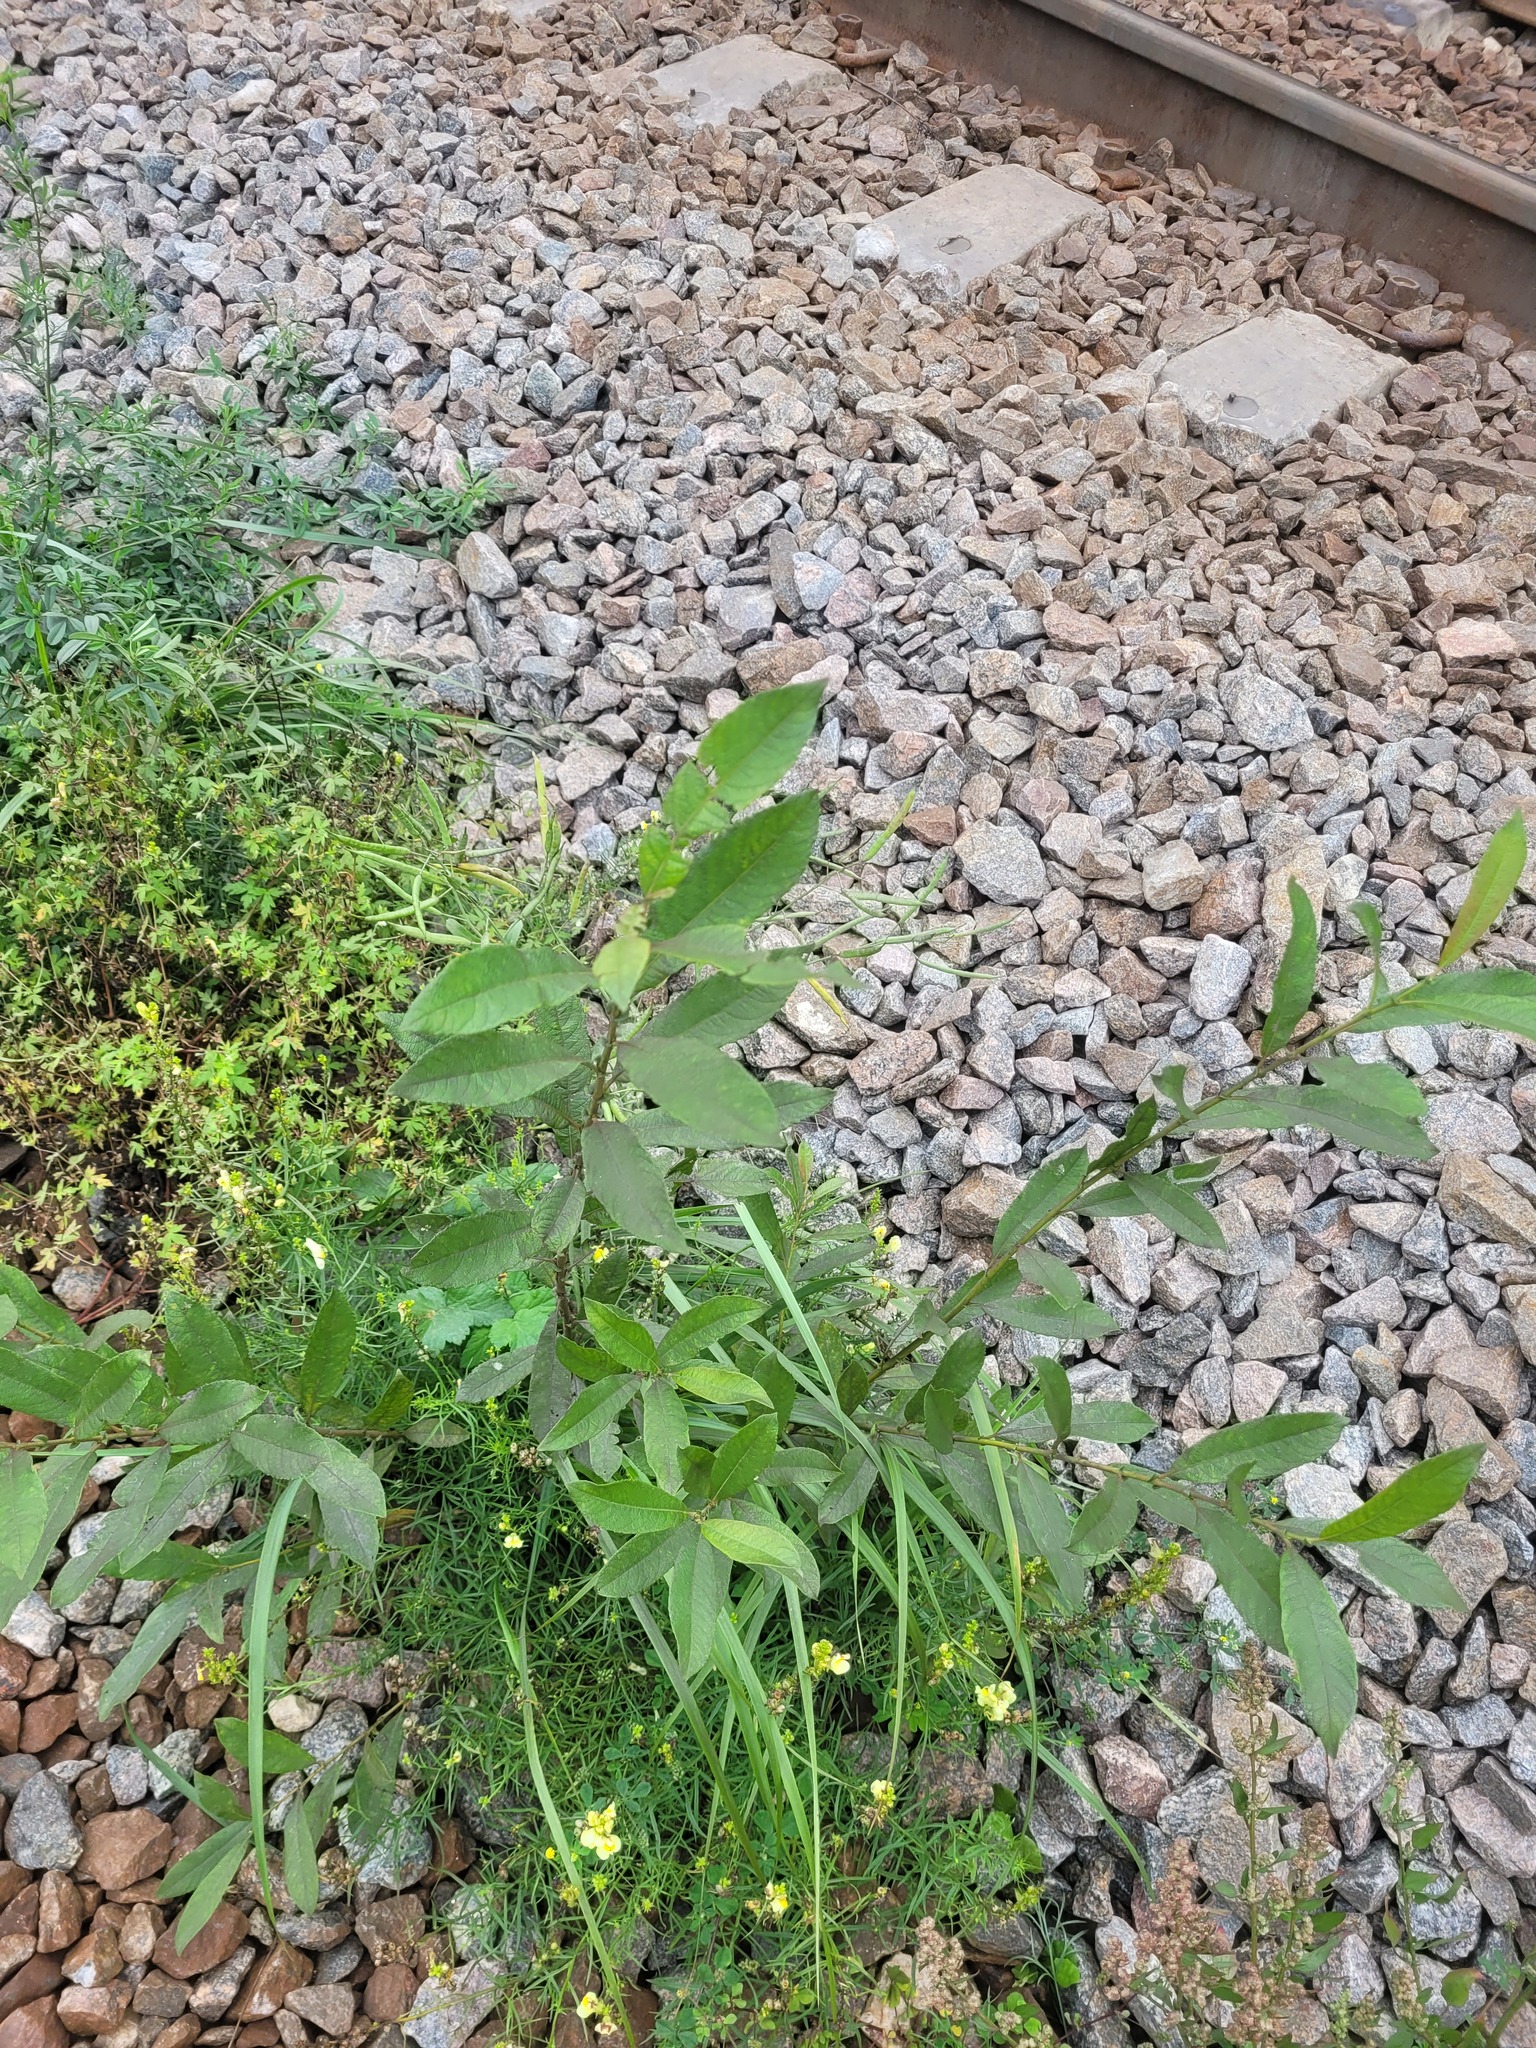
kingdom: Plantae
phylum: Tracheophyta
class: Magnoliopsida
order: Malpighiales
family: Salicaceae
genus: Salix
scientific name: Salix cinerea
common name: Common sallow
